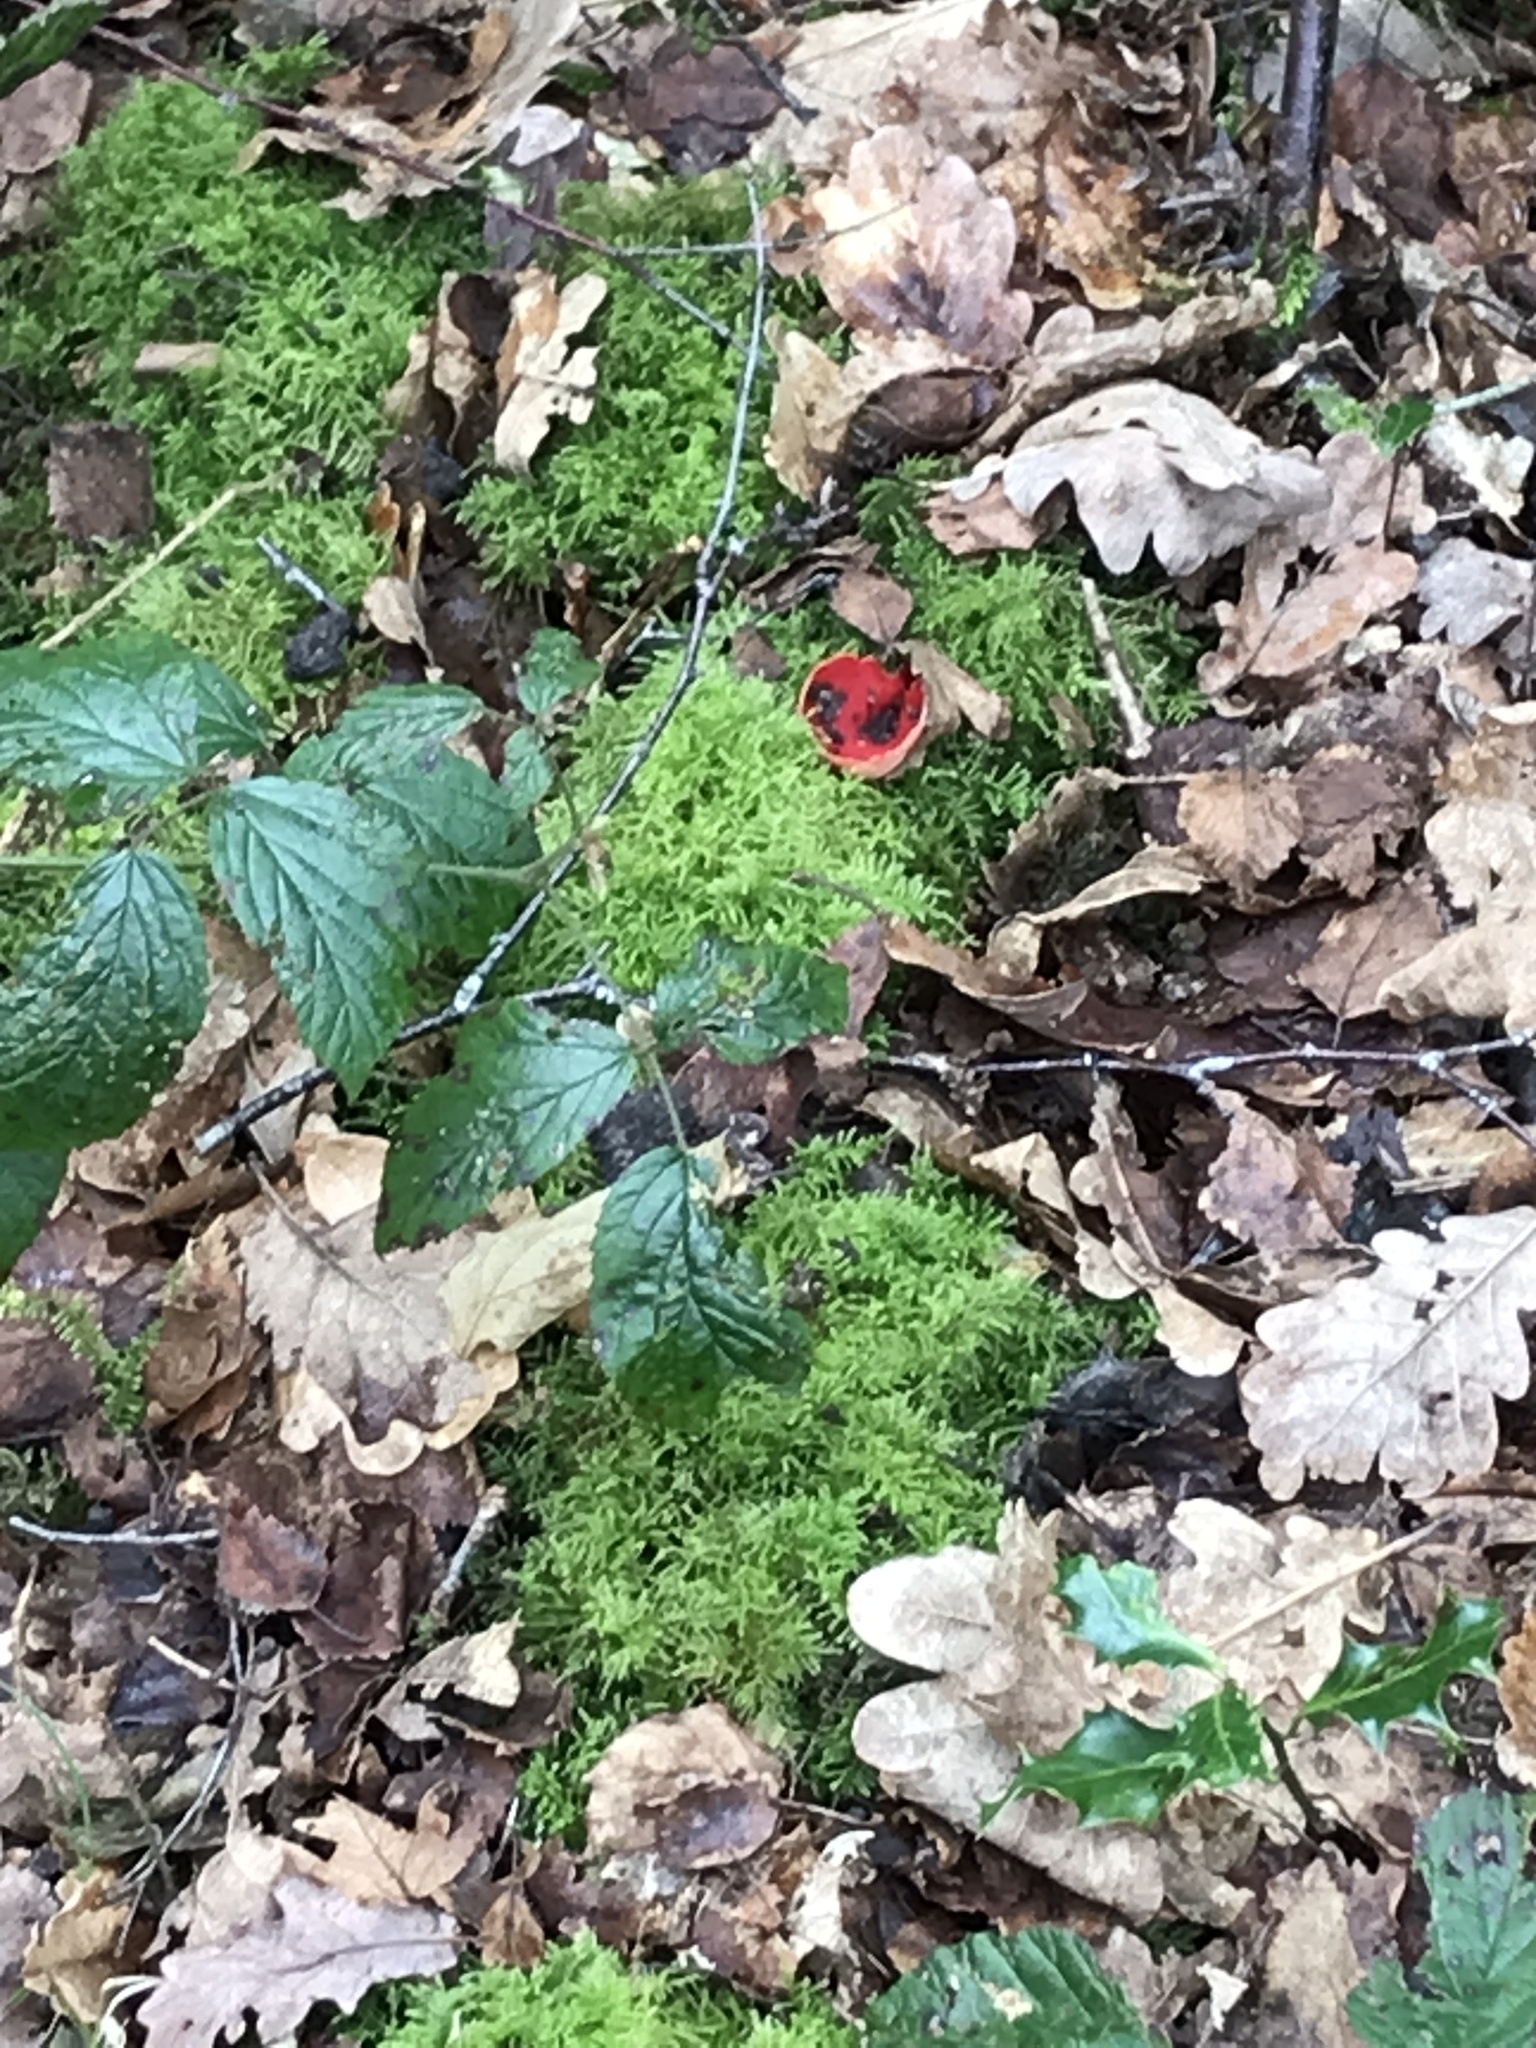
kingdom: Fungi
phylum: Ascomycota
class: Pezizomycetes
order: Pezizales
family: Sarcoscyphaceae
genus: Sarcoscypha
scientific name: Sarcoscypha
